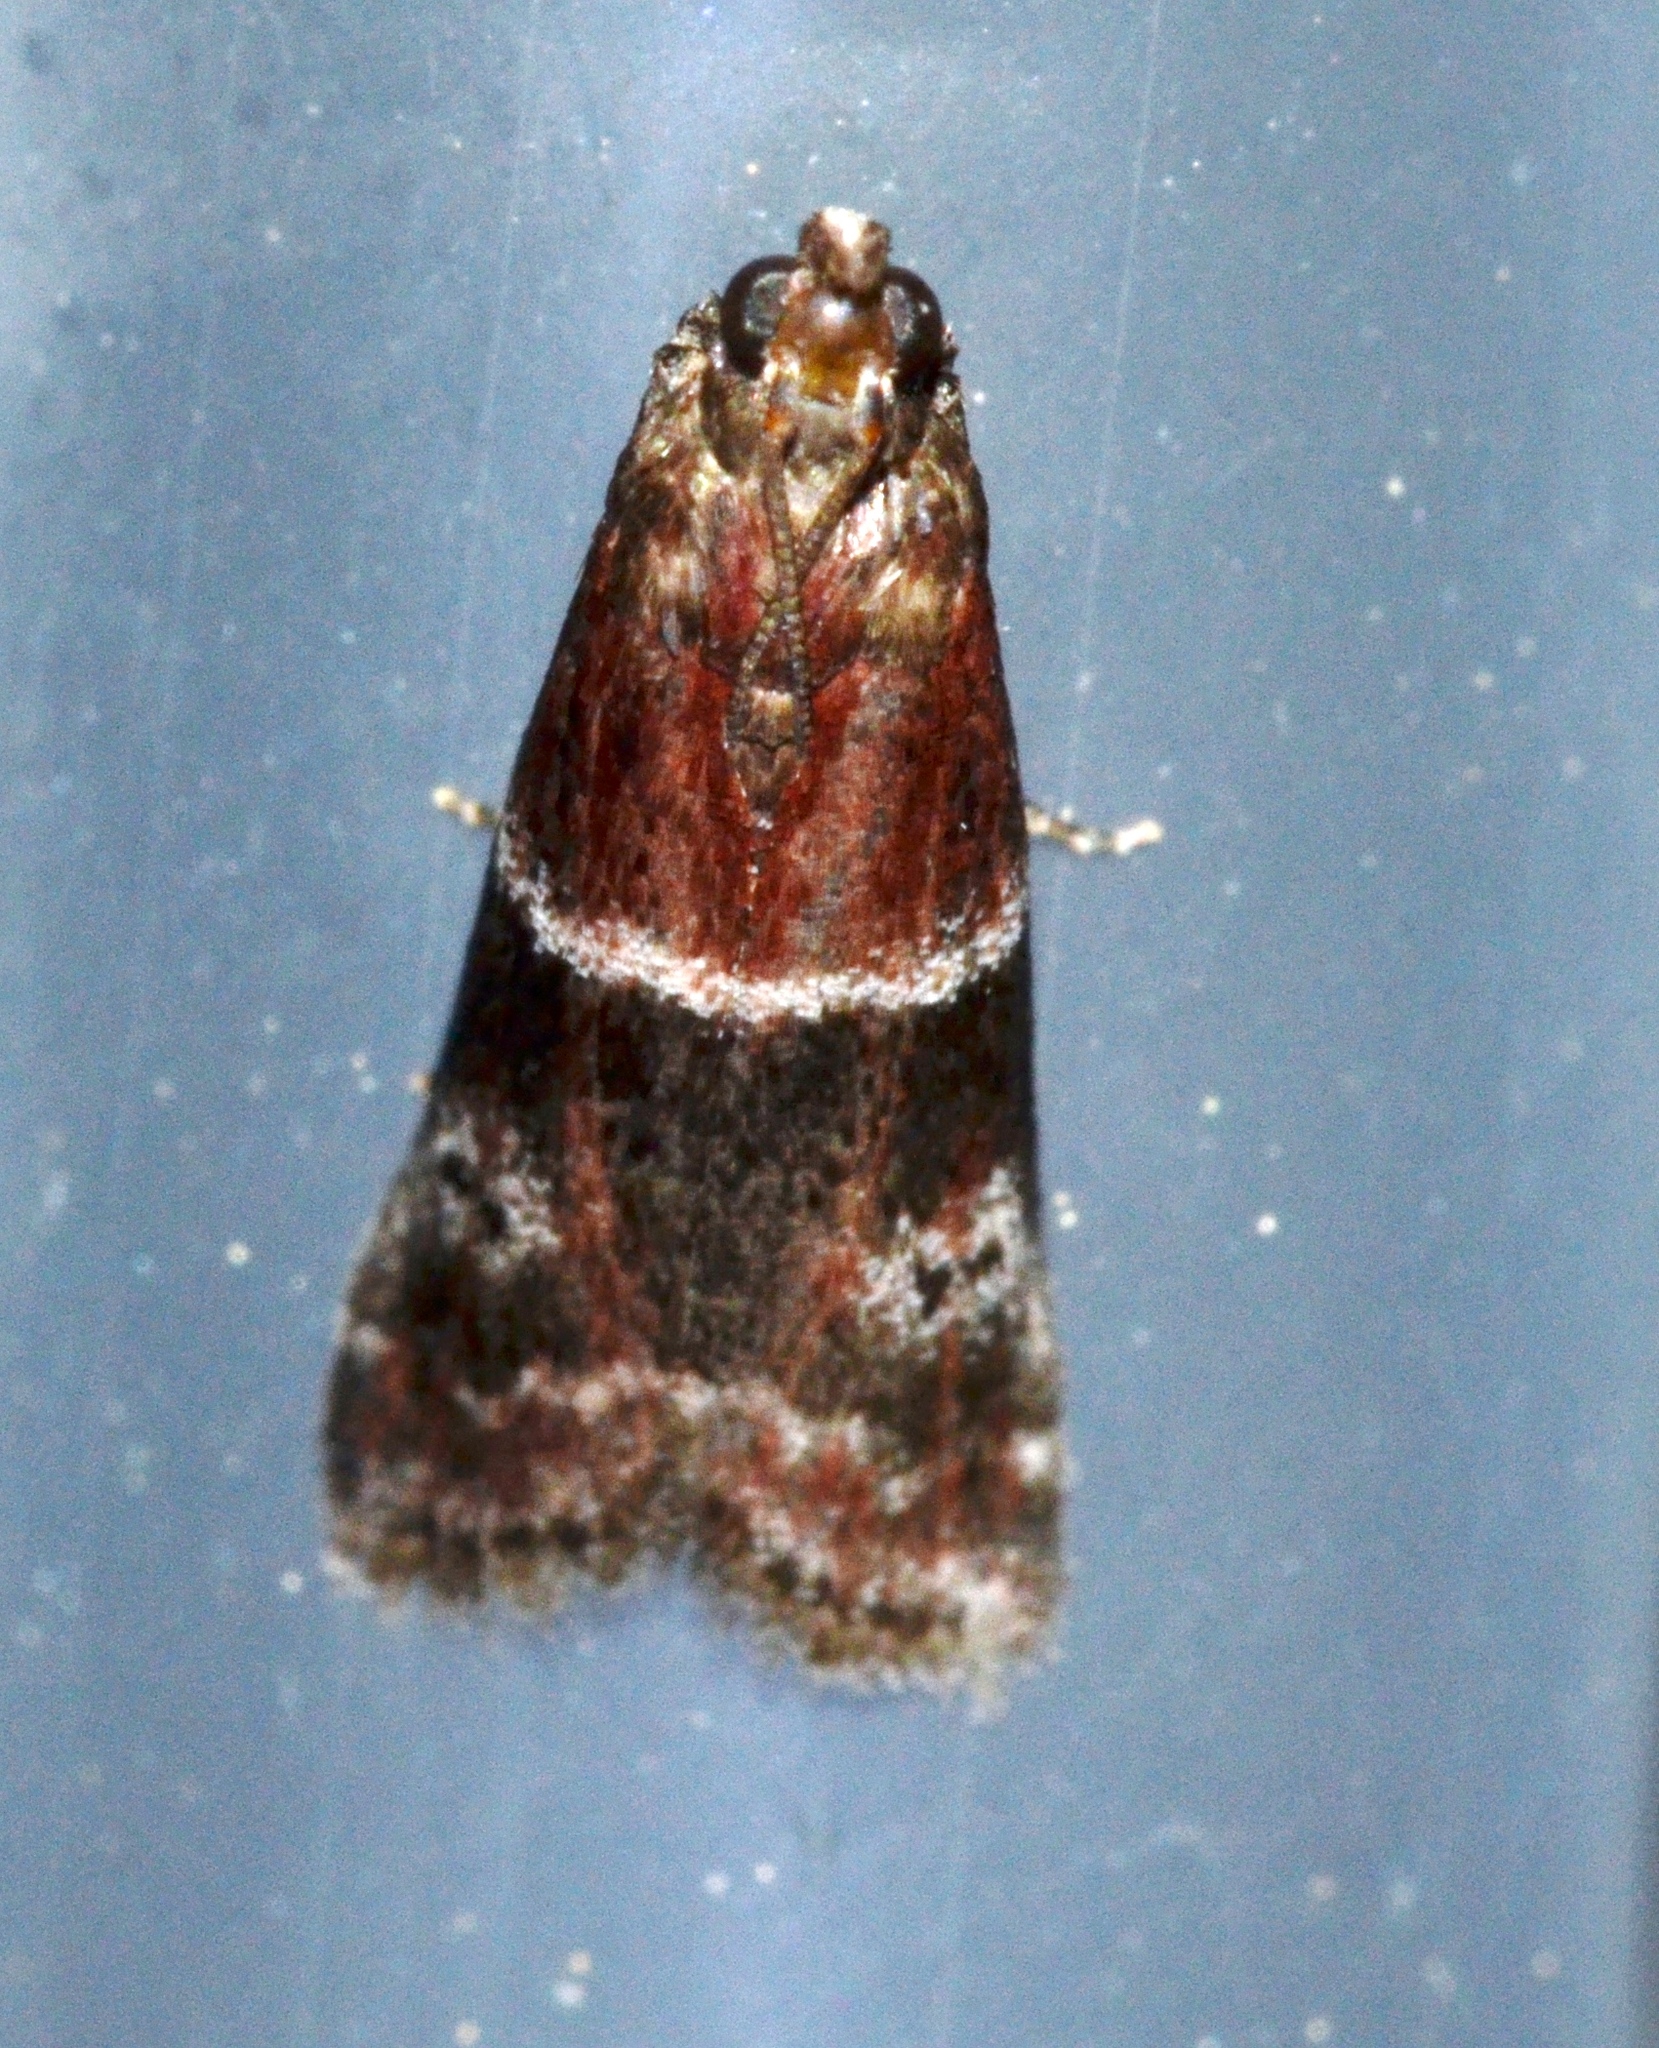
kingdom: Animalia
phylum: Arthropoda
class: Insecta
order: Lepidoptera
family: Pyralidae
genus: Moodna
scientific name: Moodna ostrinella
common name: Darker moodna moth
